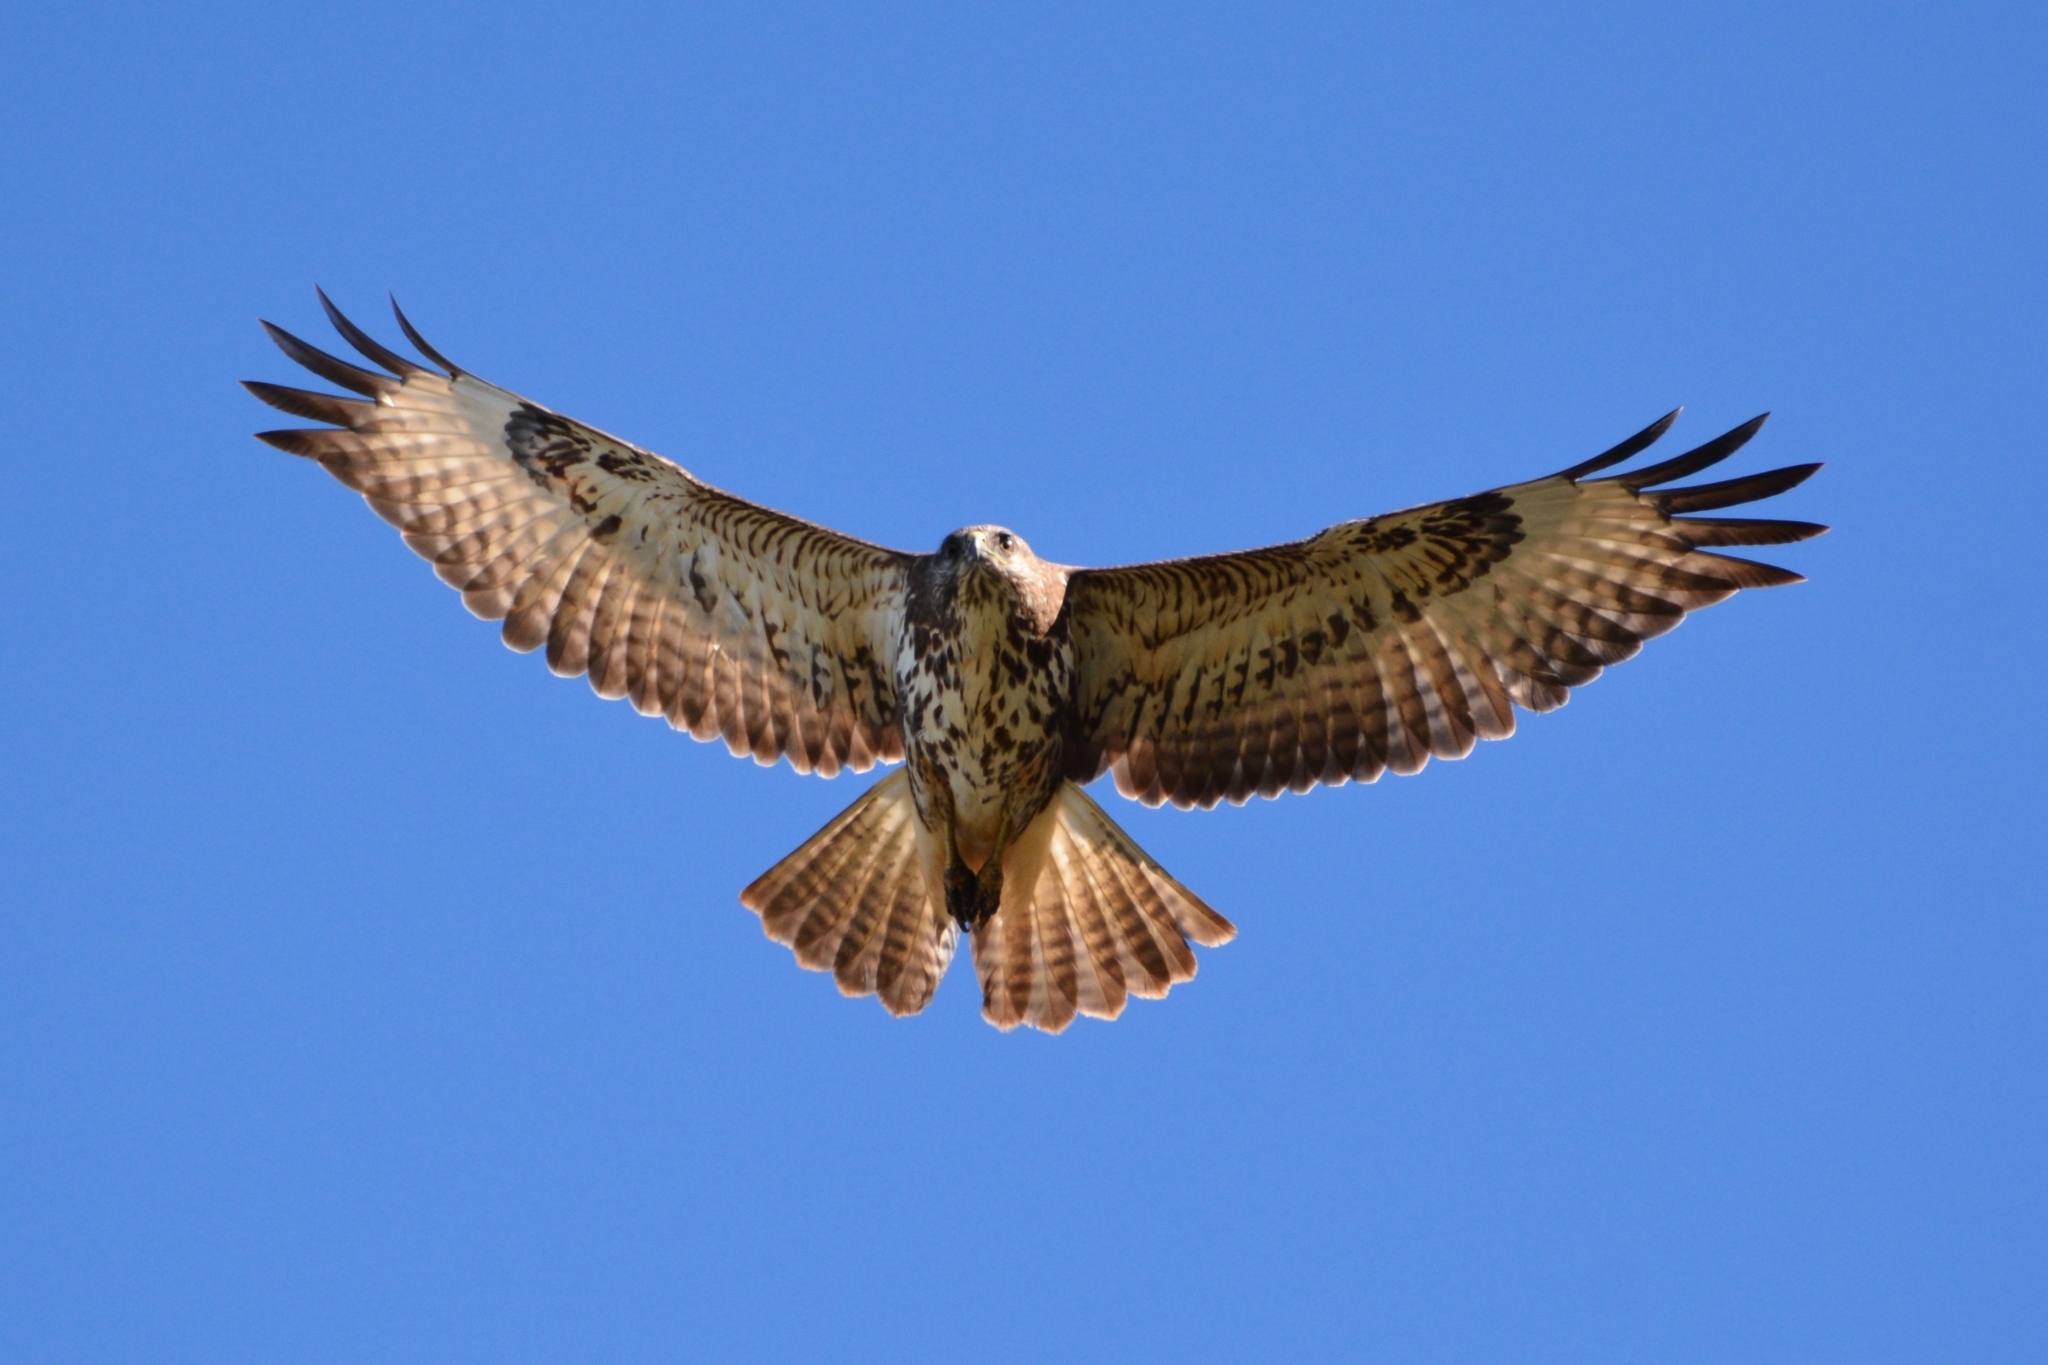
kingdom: Animalia
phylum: Chordata
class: Aves
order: Accipitriformes
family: Accipitridae
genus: Buteo
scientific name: Buteo buteo
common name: Common buzzard
